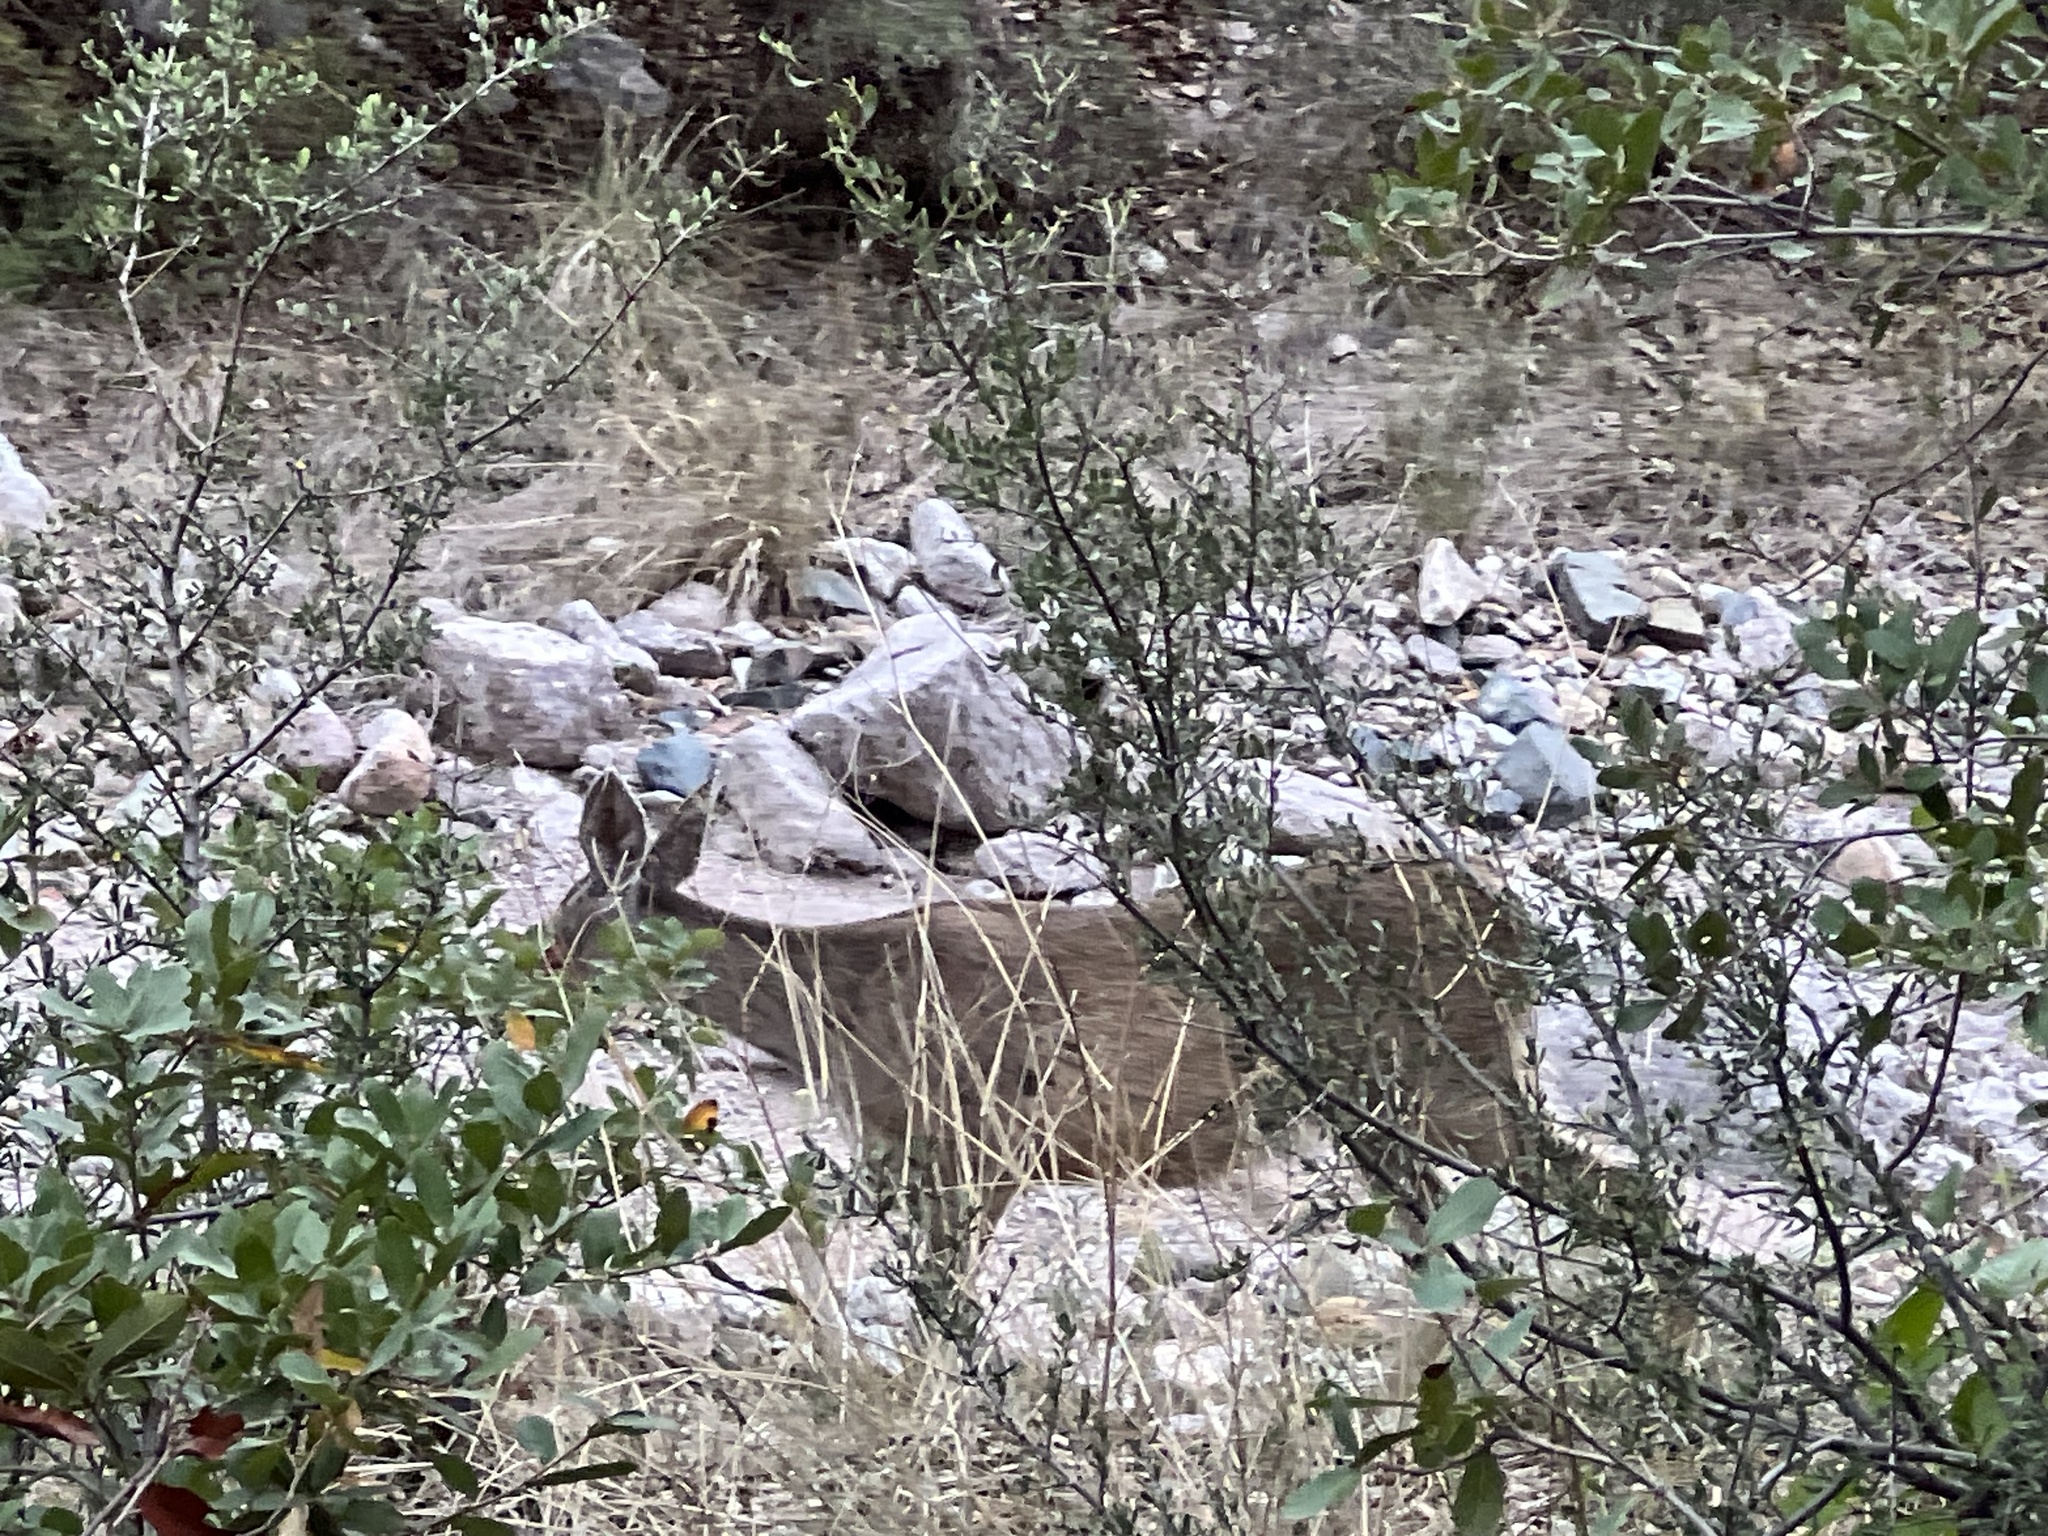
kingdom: Animalia
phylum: Chordata
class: Mammalia
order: Artiodactyla
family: Cervidae
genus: Odocoileus
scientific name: Odocoileus virginianus
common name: White-tailed deer
